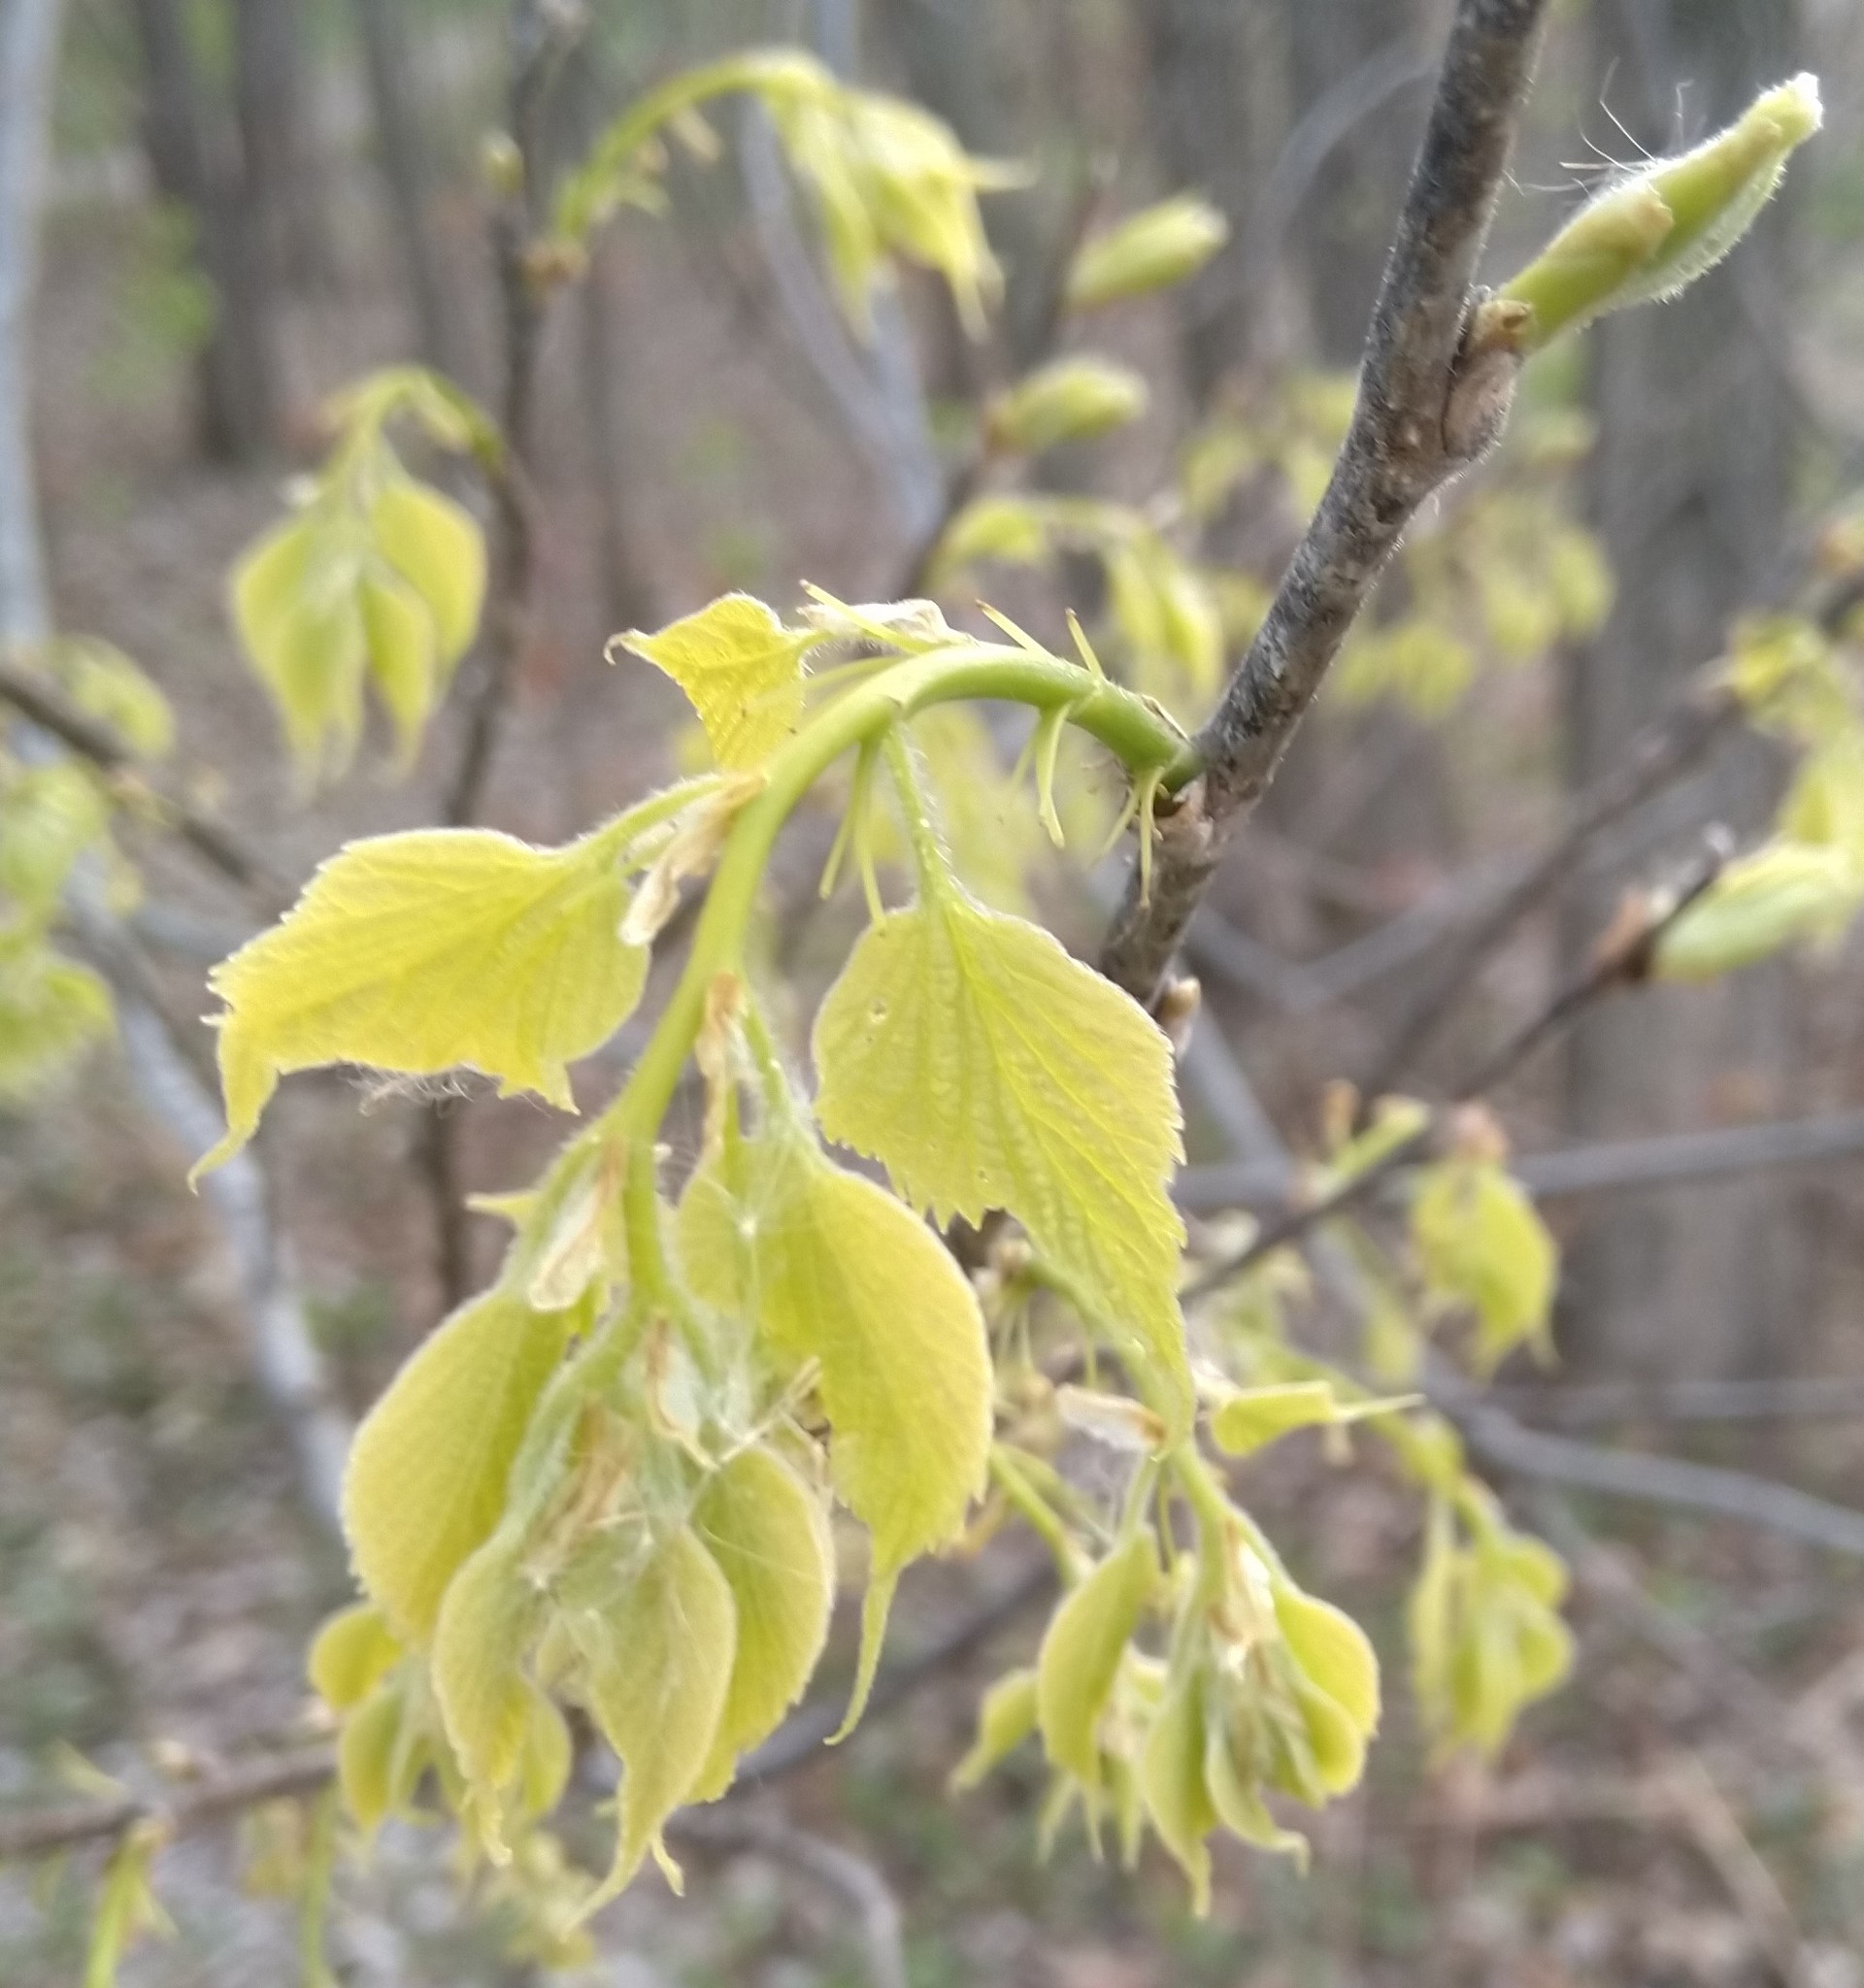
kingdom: Plantae
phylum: Tracheophyta
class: Magnoliopsida
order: Rosales
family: Cannabaceae
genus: Celtis
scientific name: Celtis occidentalis
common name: Common hackberry
